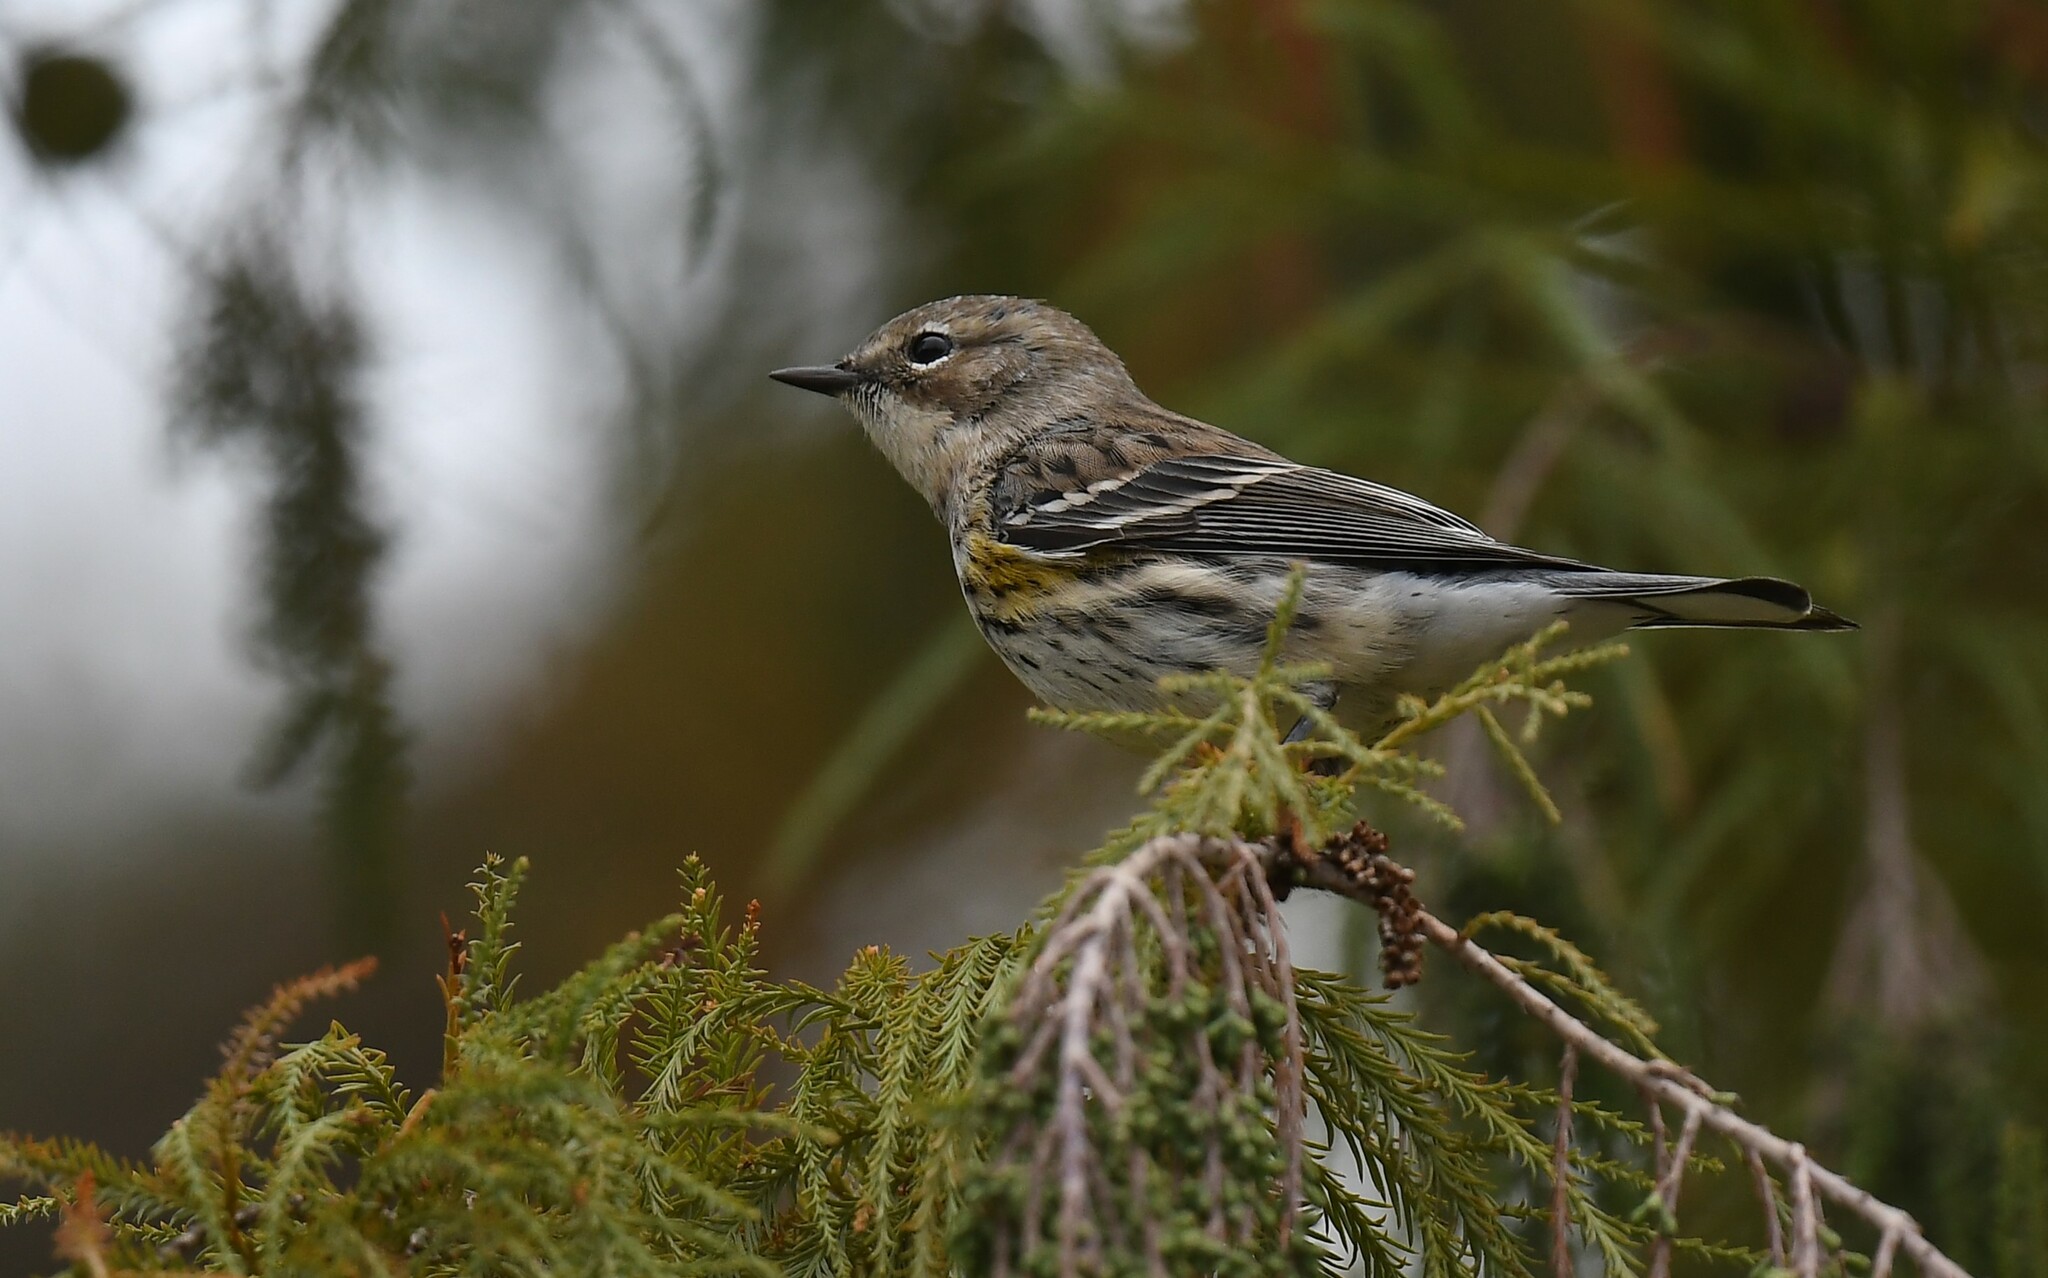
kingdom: Animalia
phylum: Chordata
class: Aves
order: Passeriformes
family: Parulidae
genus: Setophaga
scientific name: Setophaga coronata
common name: Myrtle warbler
